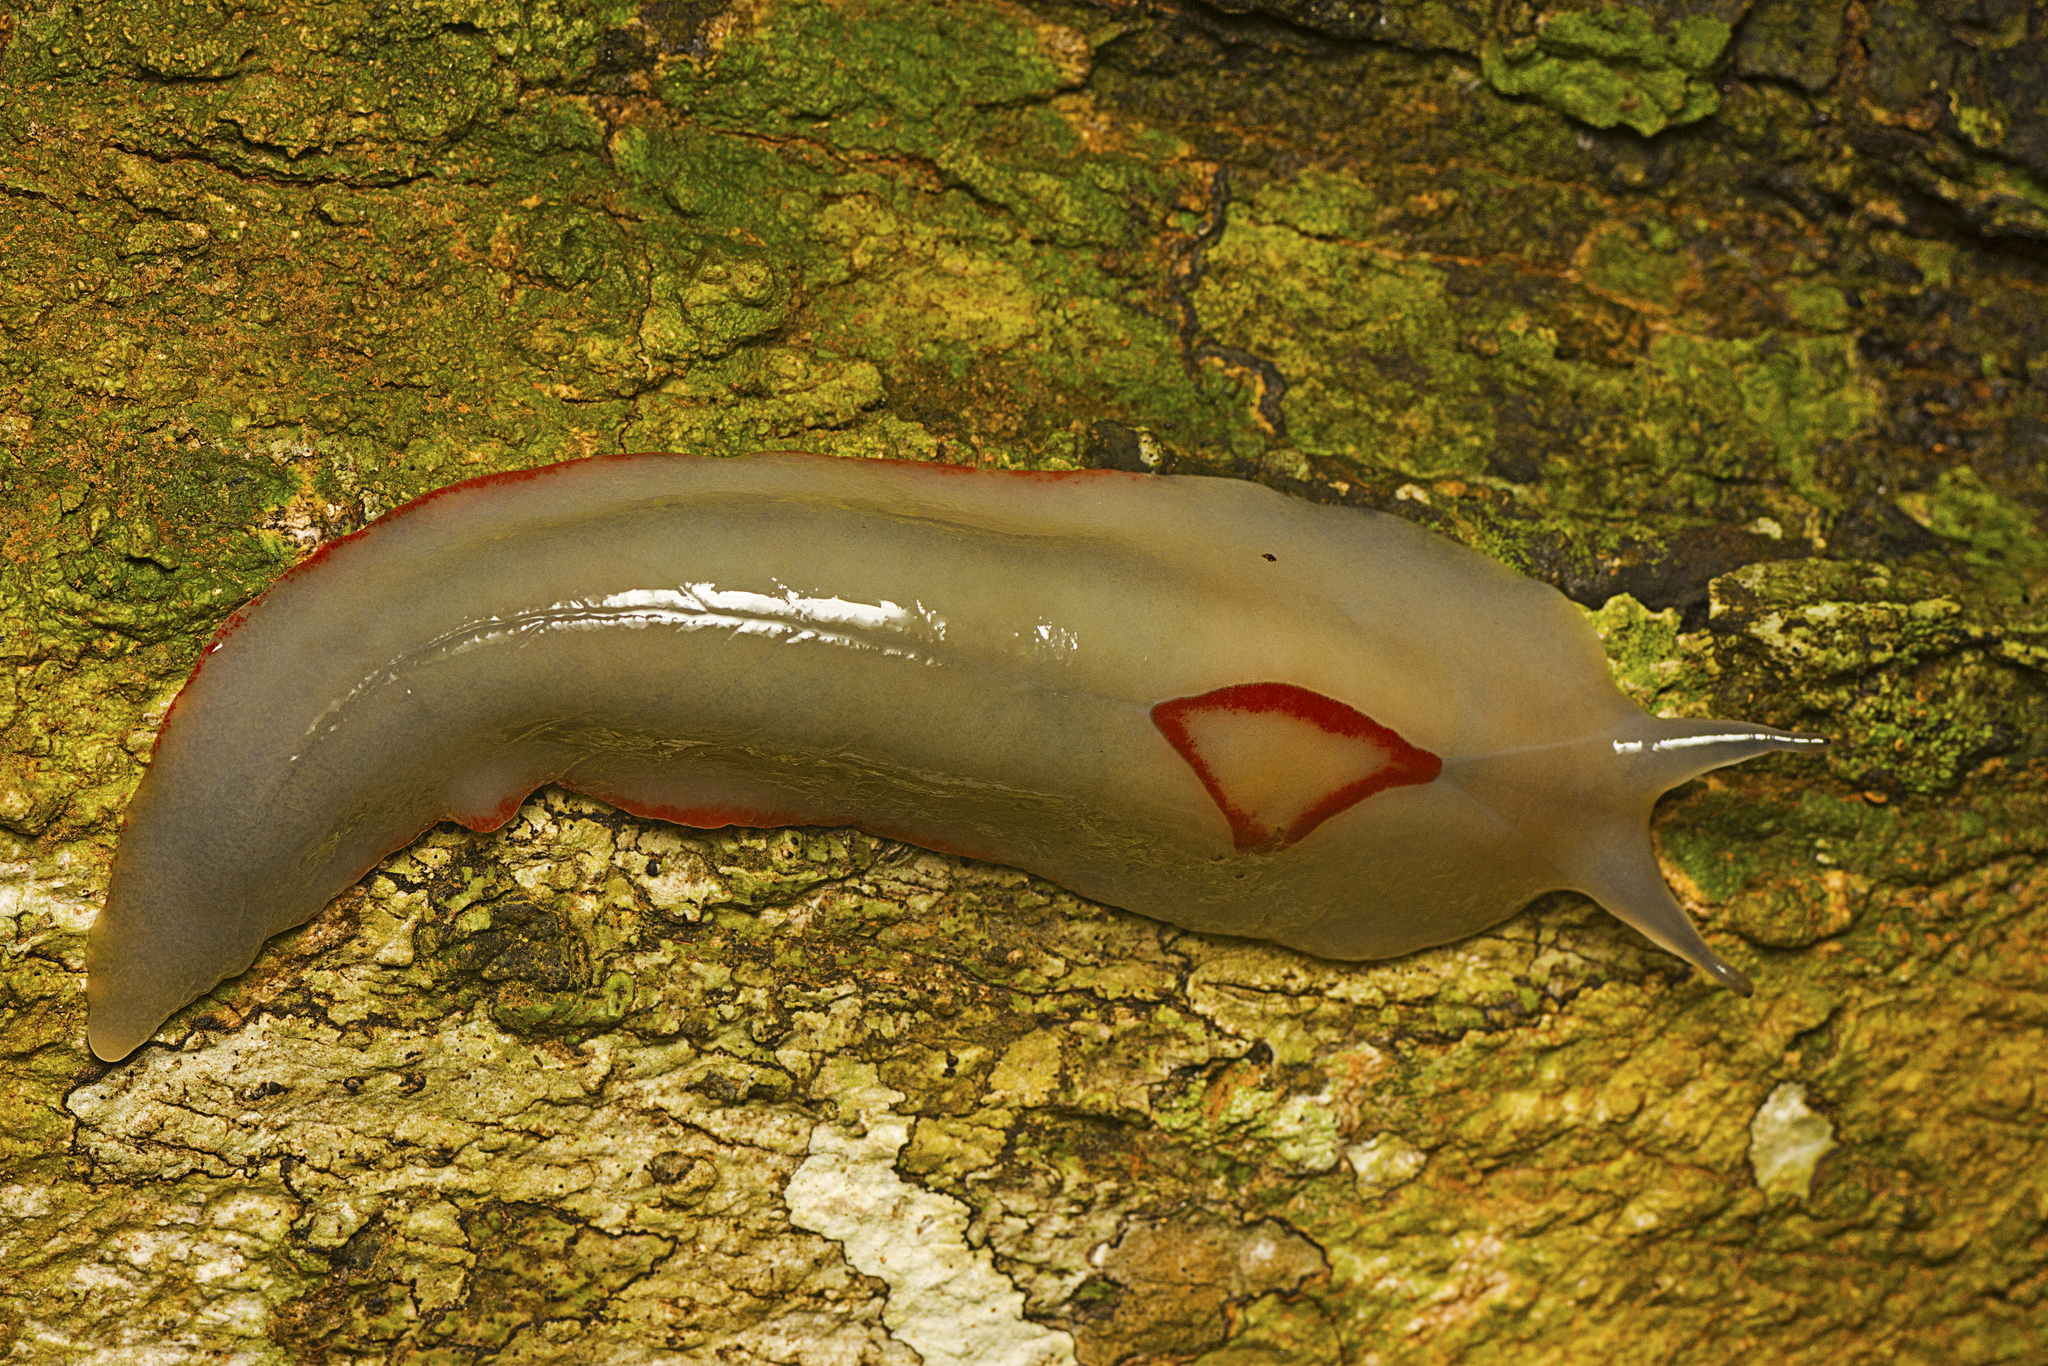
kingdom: Animalia
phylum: Mollusca
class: Gastropoda
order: Stylommatophora
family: Athoracophoridae
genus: Triboniophorus
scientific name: Triboniophorus graeffei
